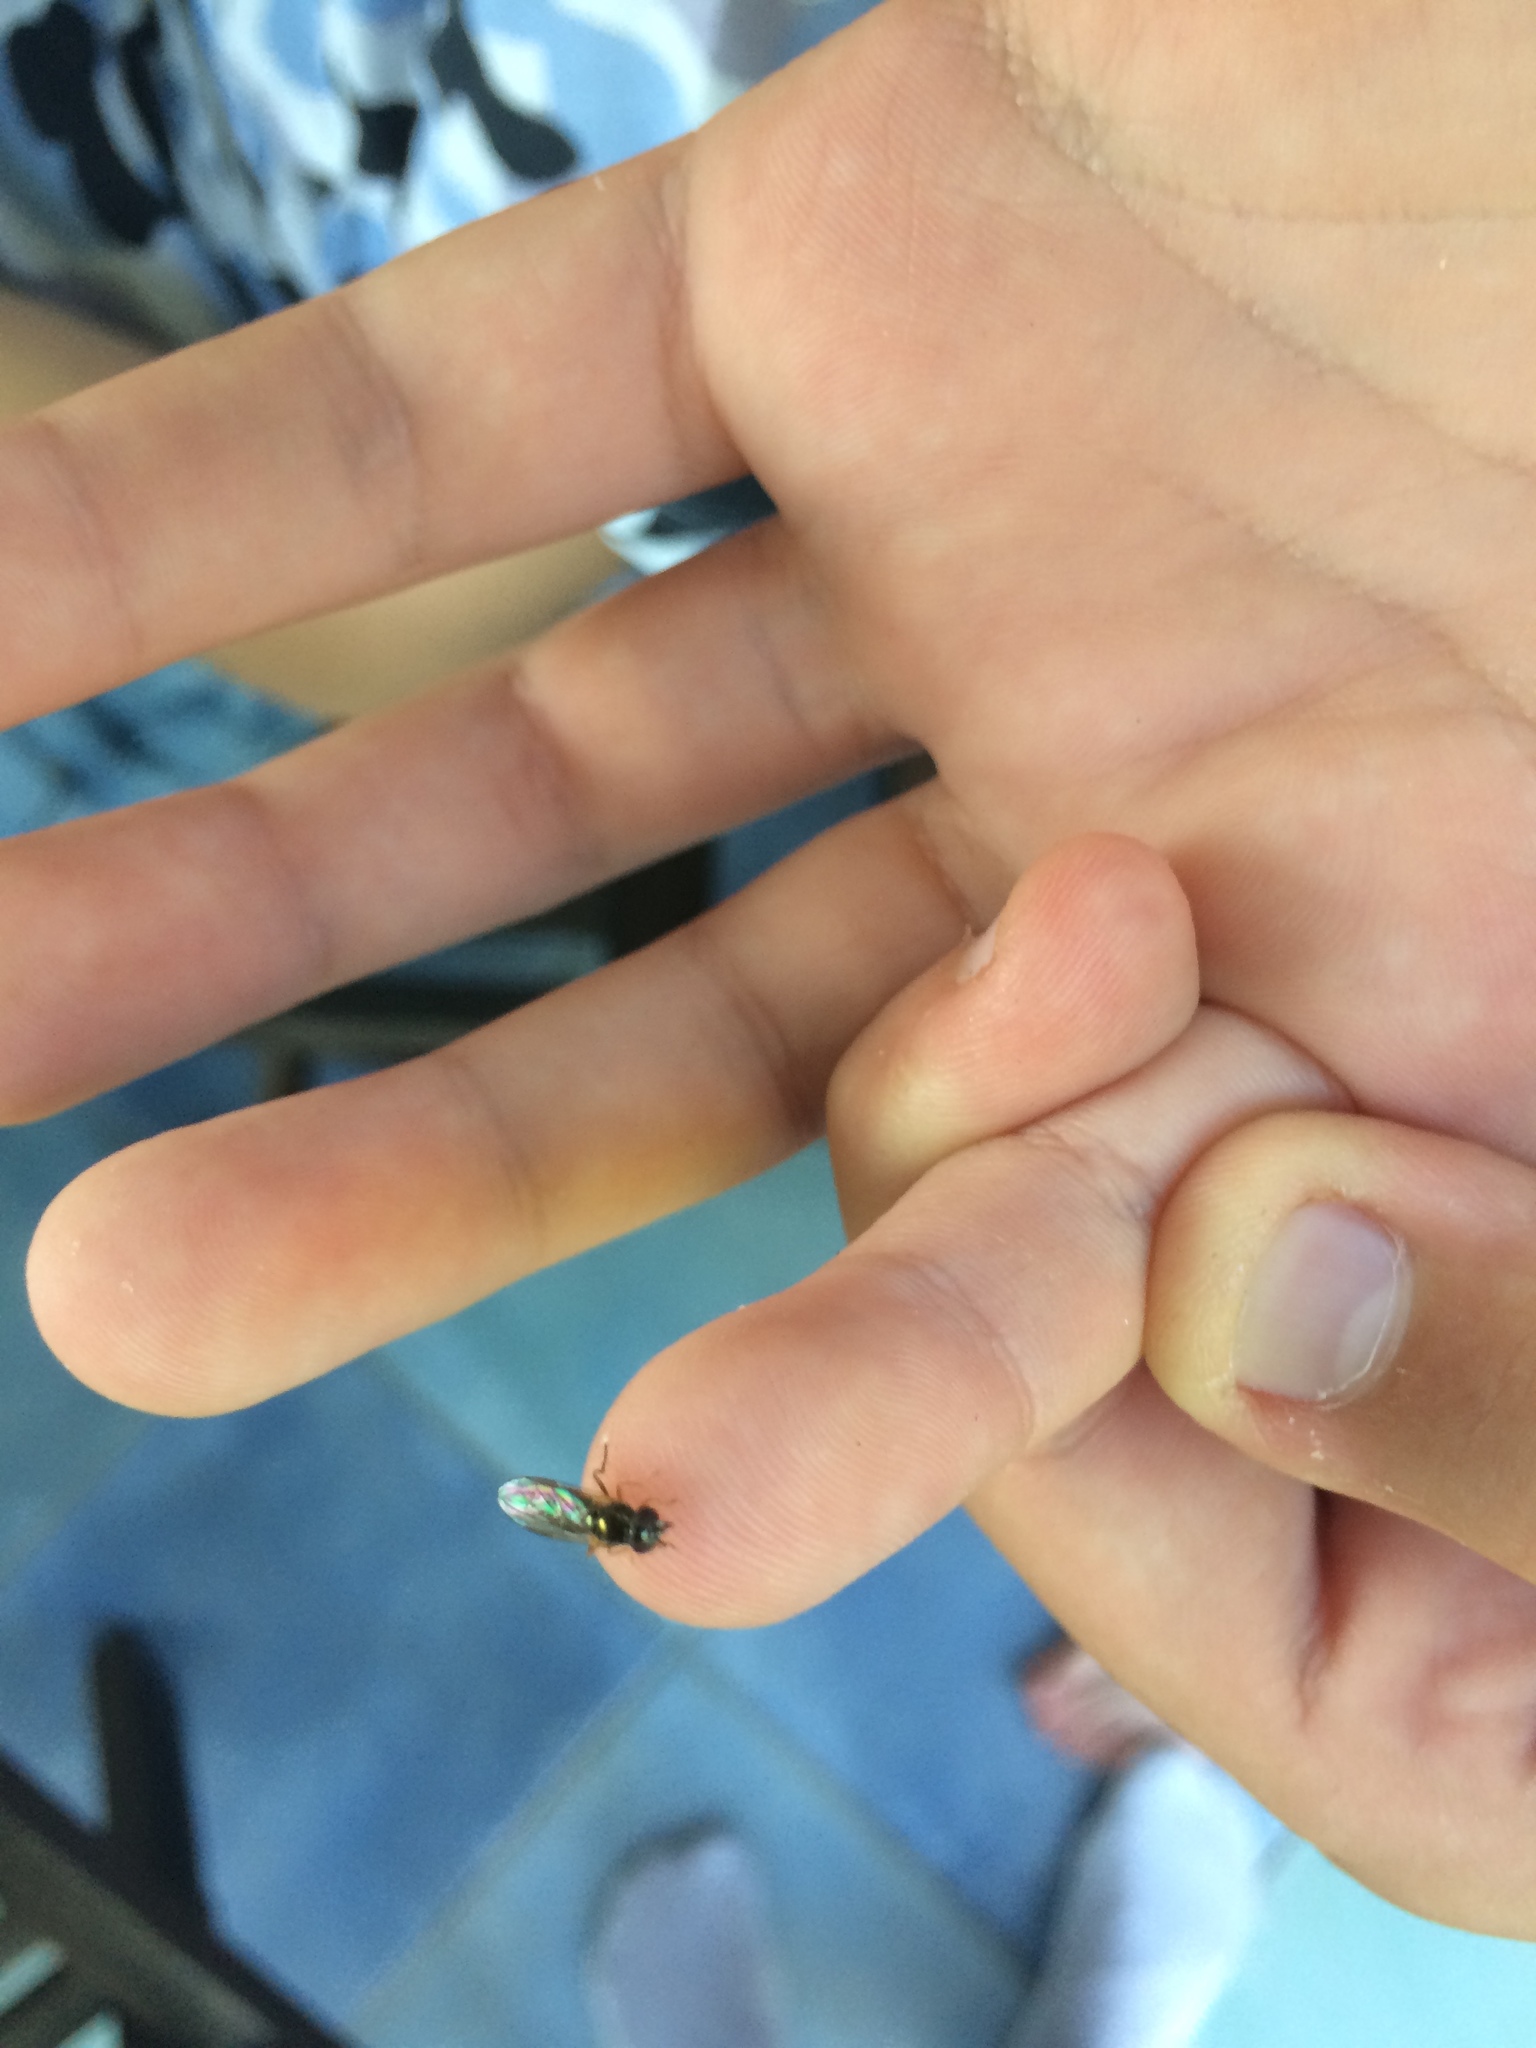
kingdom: Animalia
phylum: Arthropoda
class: Insecta
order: Diptera
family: Stratiomyidae
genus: Chloromyia
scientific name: Chloromyia formosa
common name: Soldier fly
